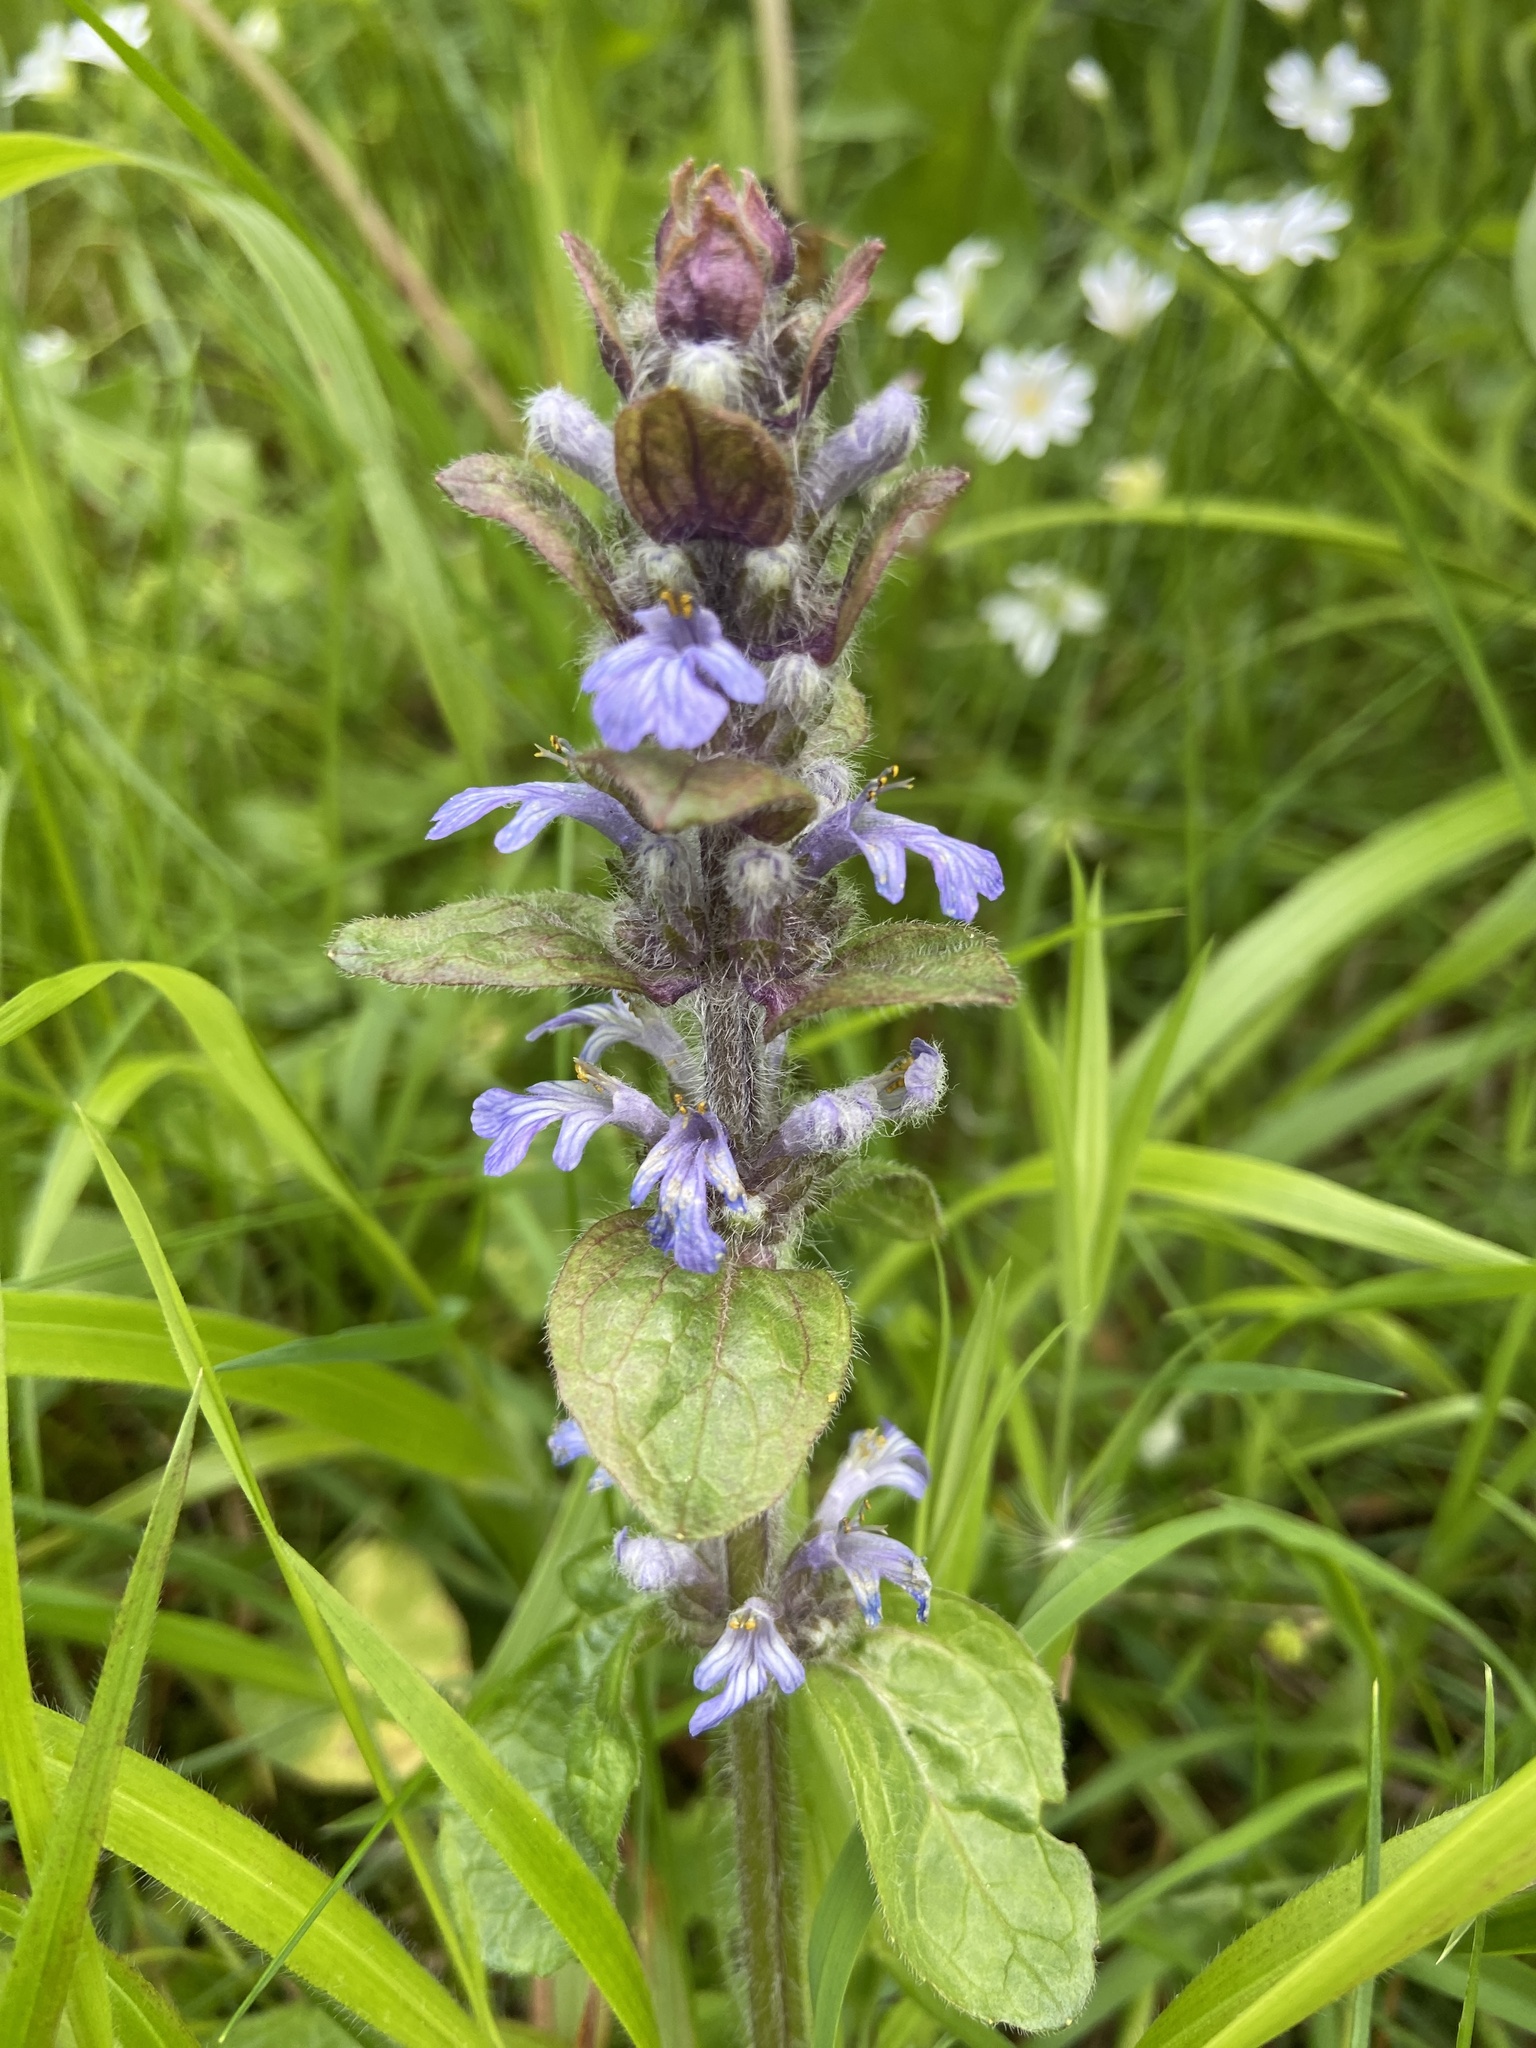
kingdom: Plantae
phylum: Tracheophyta
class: Magnoliopsida
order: Lamiales
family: Lamiaceae
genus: Ajuga
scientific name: Ajuga reptans
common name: Bugle
